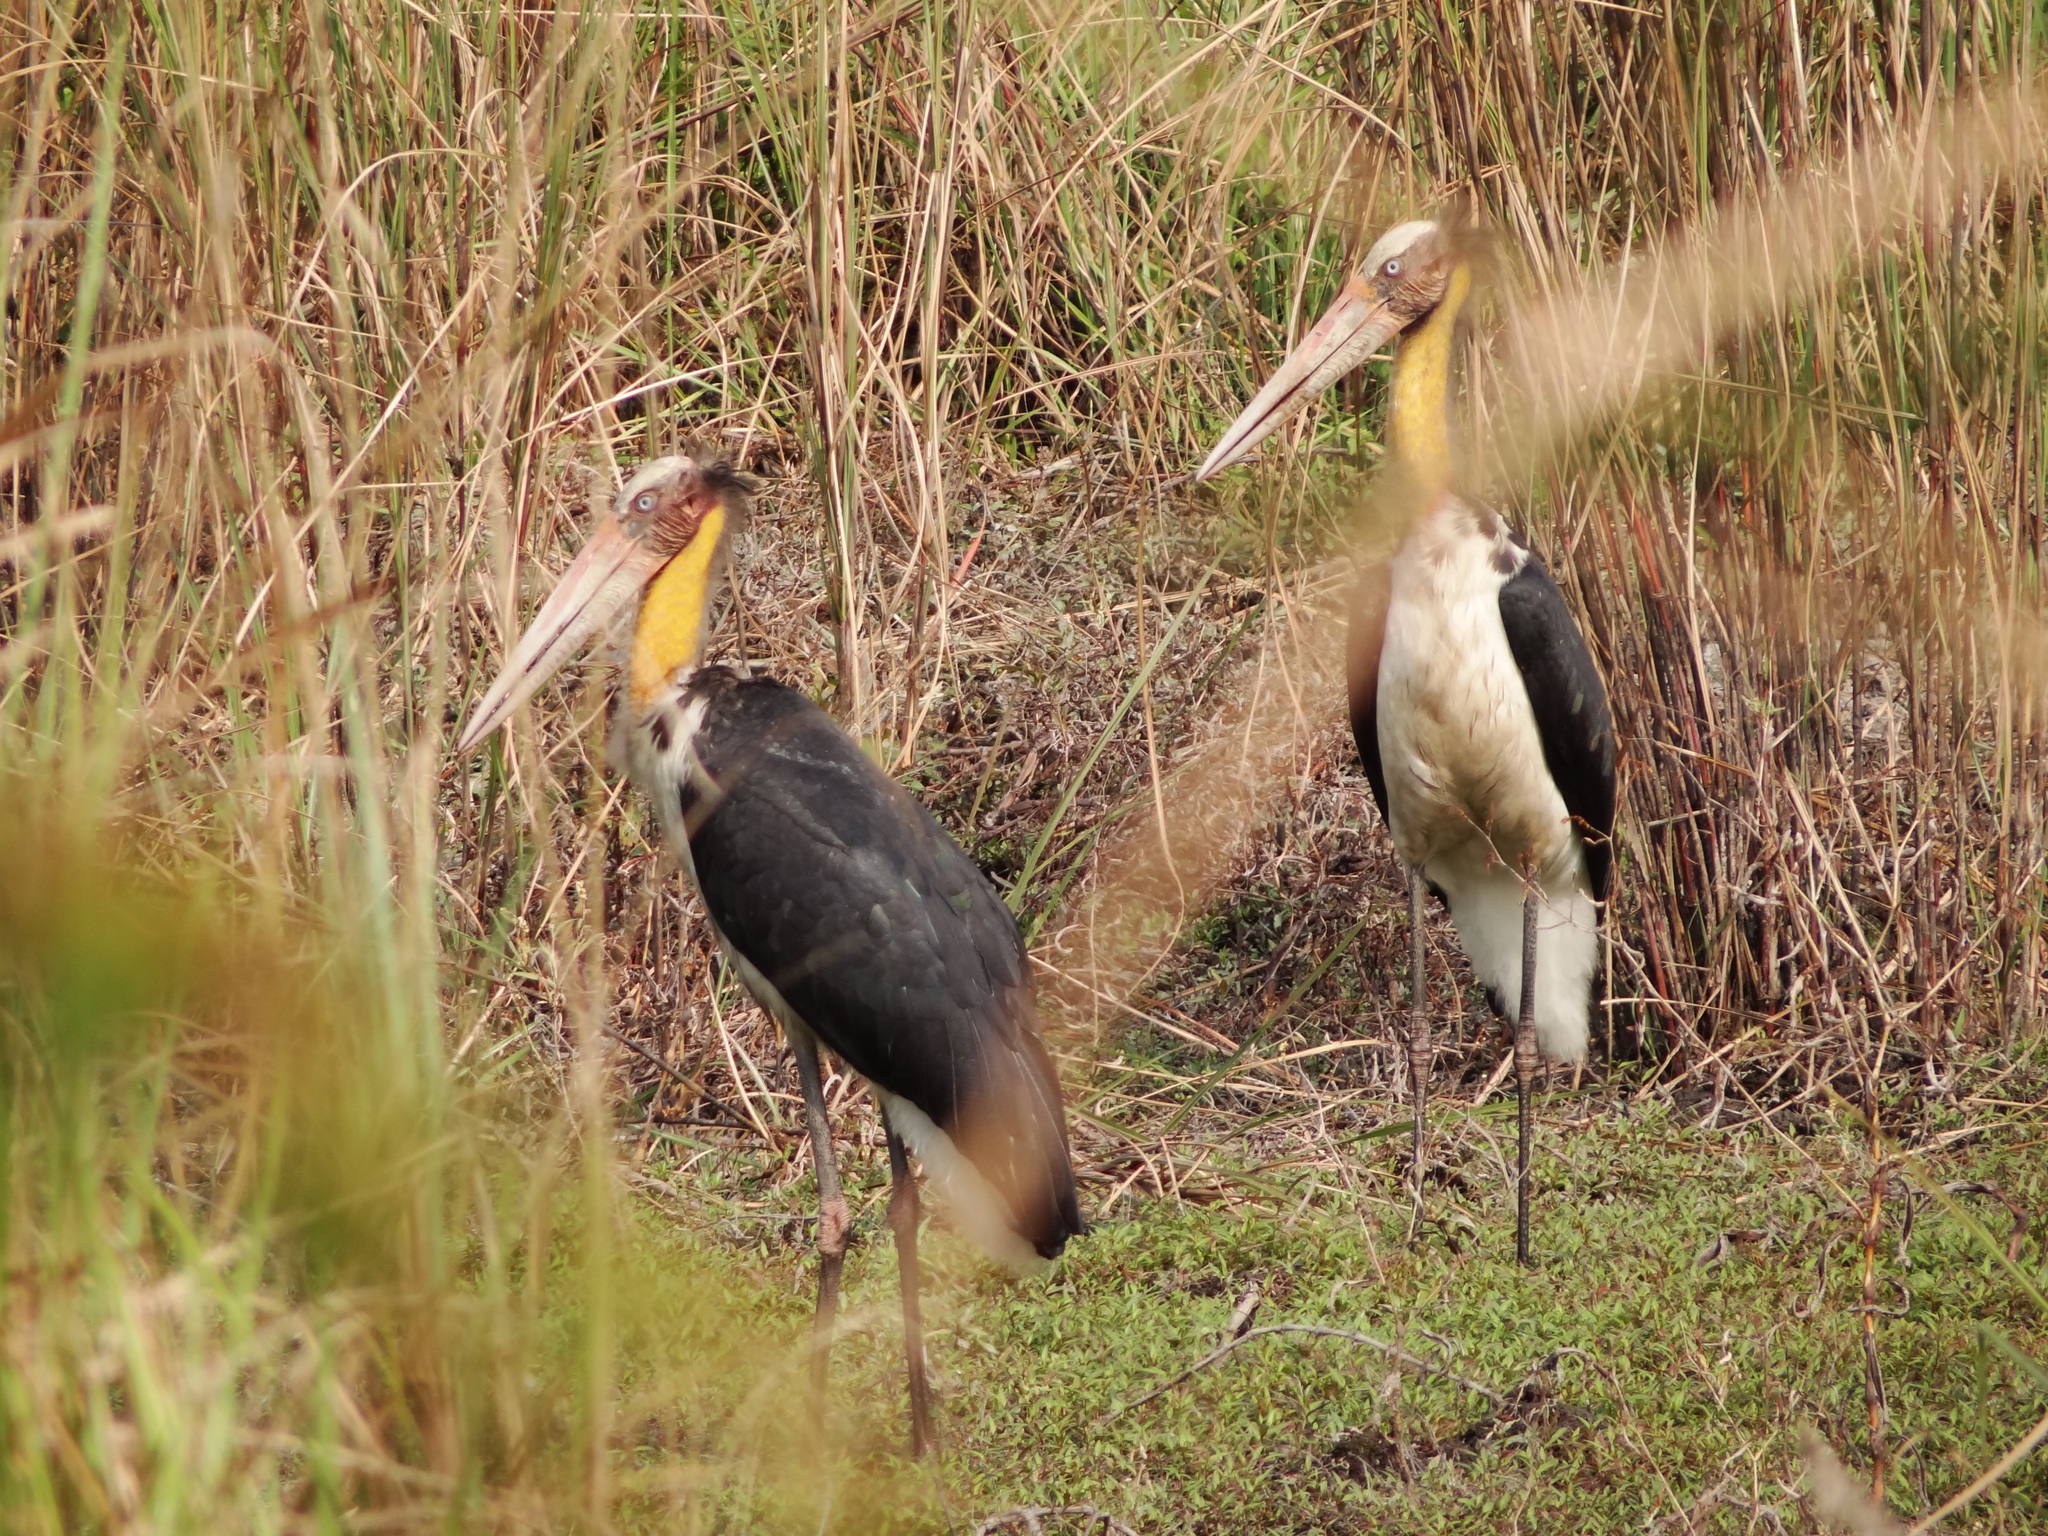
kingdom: Animalia
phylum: Chordata
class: Aves
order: Ciconiiformes
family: Ciconiidae
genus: Leptoptilos
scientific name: Leptoptilos javanicus
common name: Lesser adjutant
